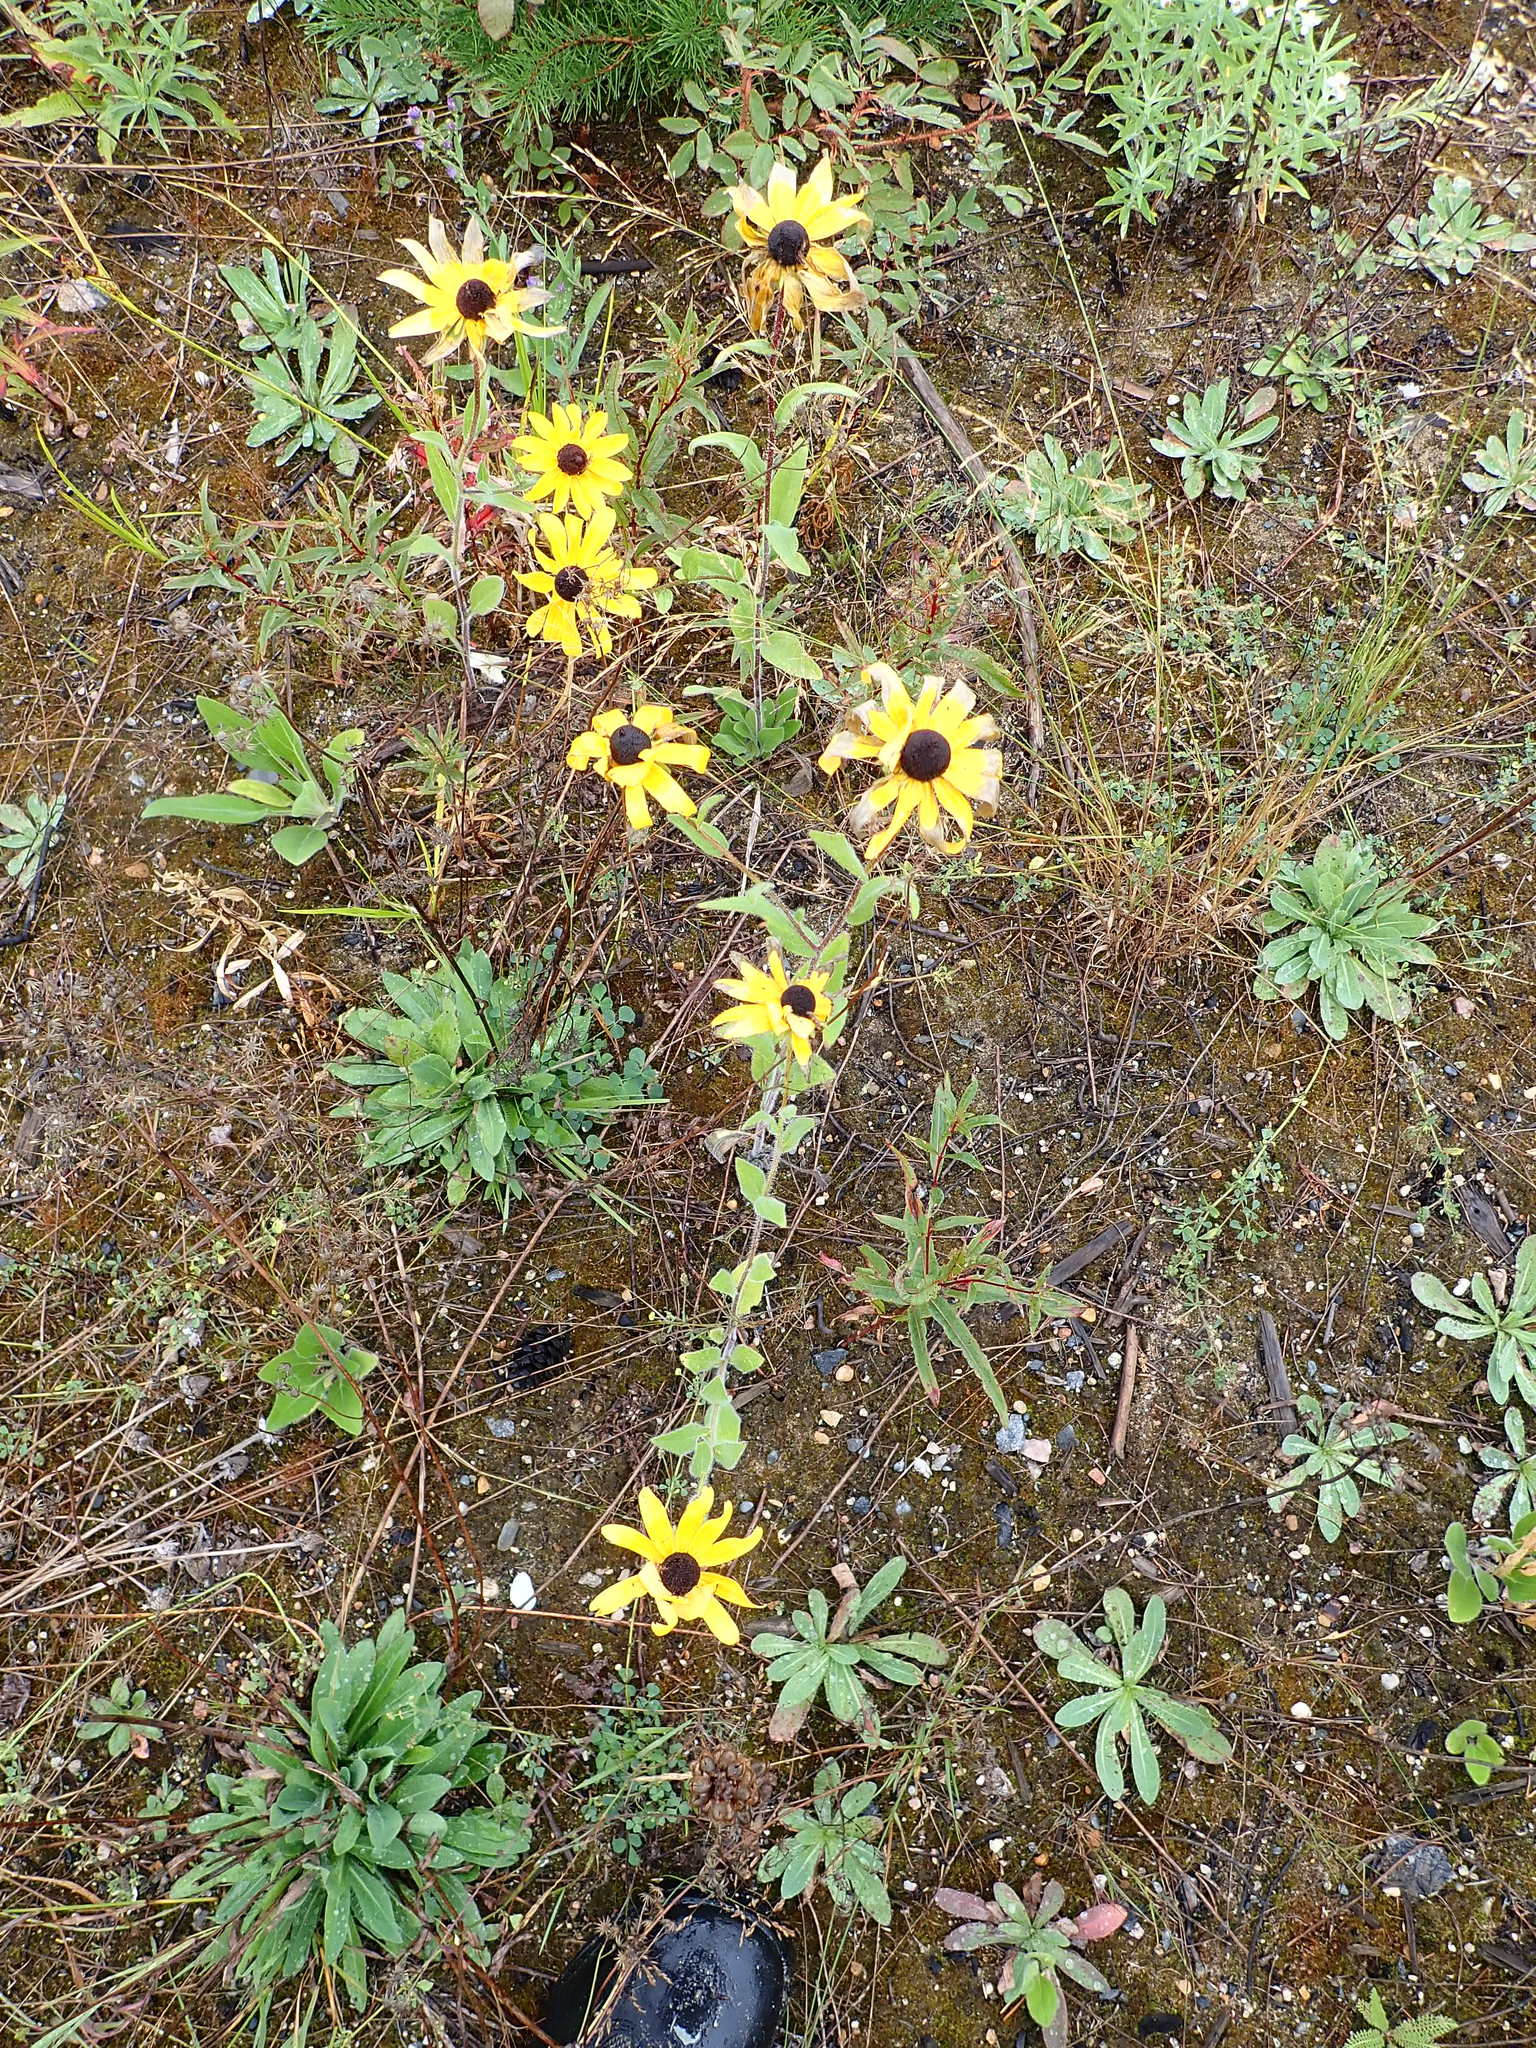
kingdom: Plantae
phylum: Tracheophyta
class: Magnoliopsida
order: Asterales
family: Asteraceae
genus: Rudbeckia
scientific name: Rudbeckia hirta
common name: Black-eyed-susan
